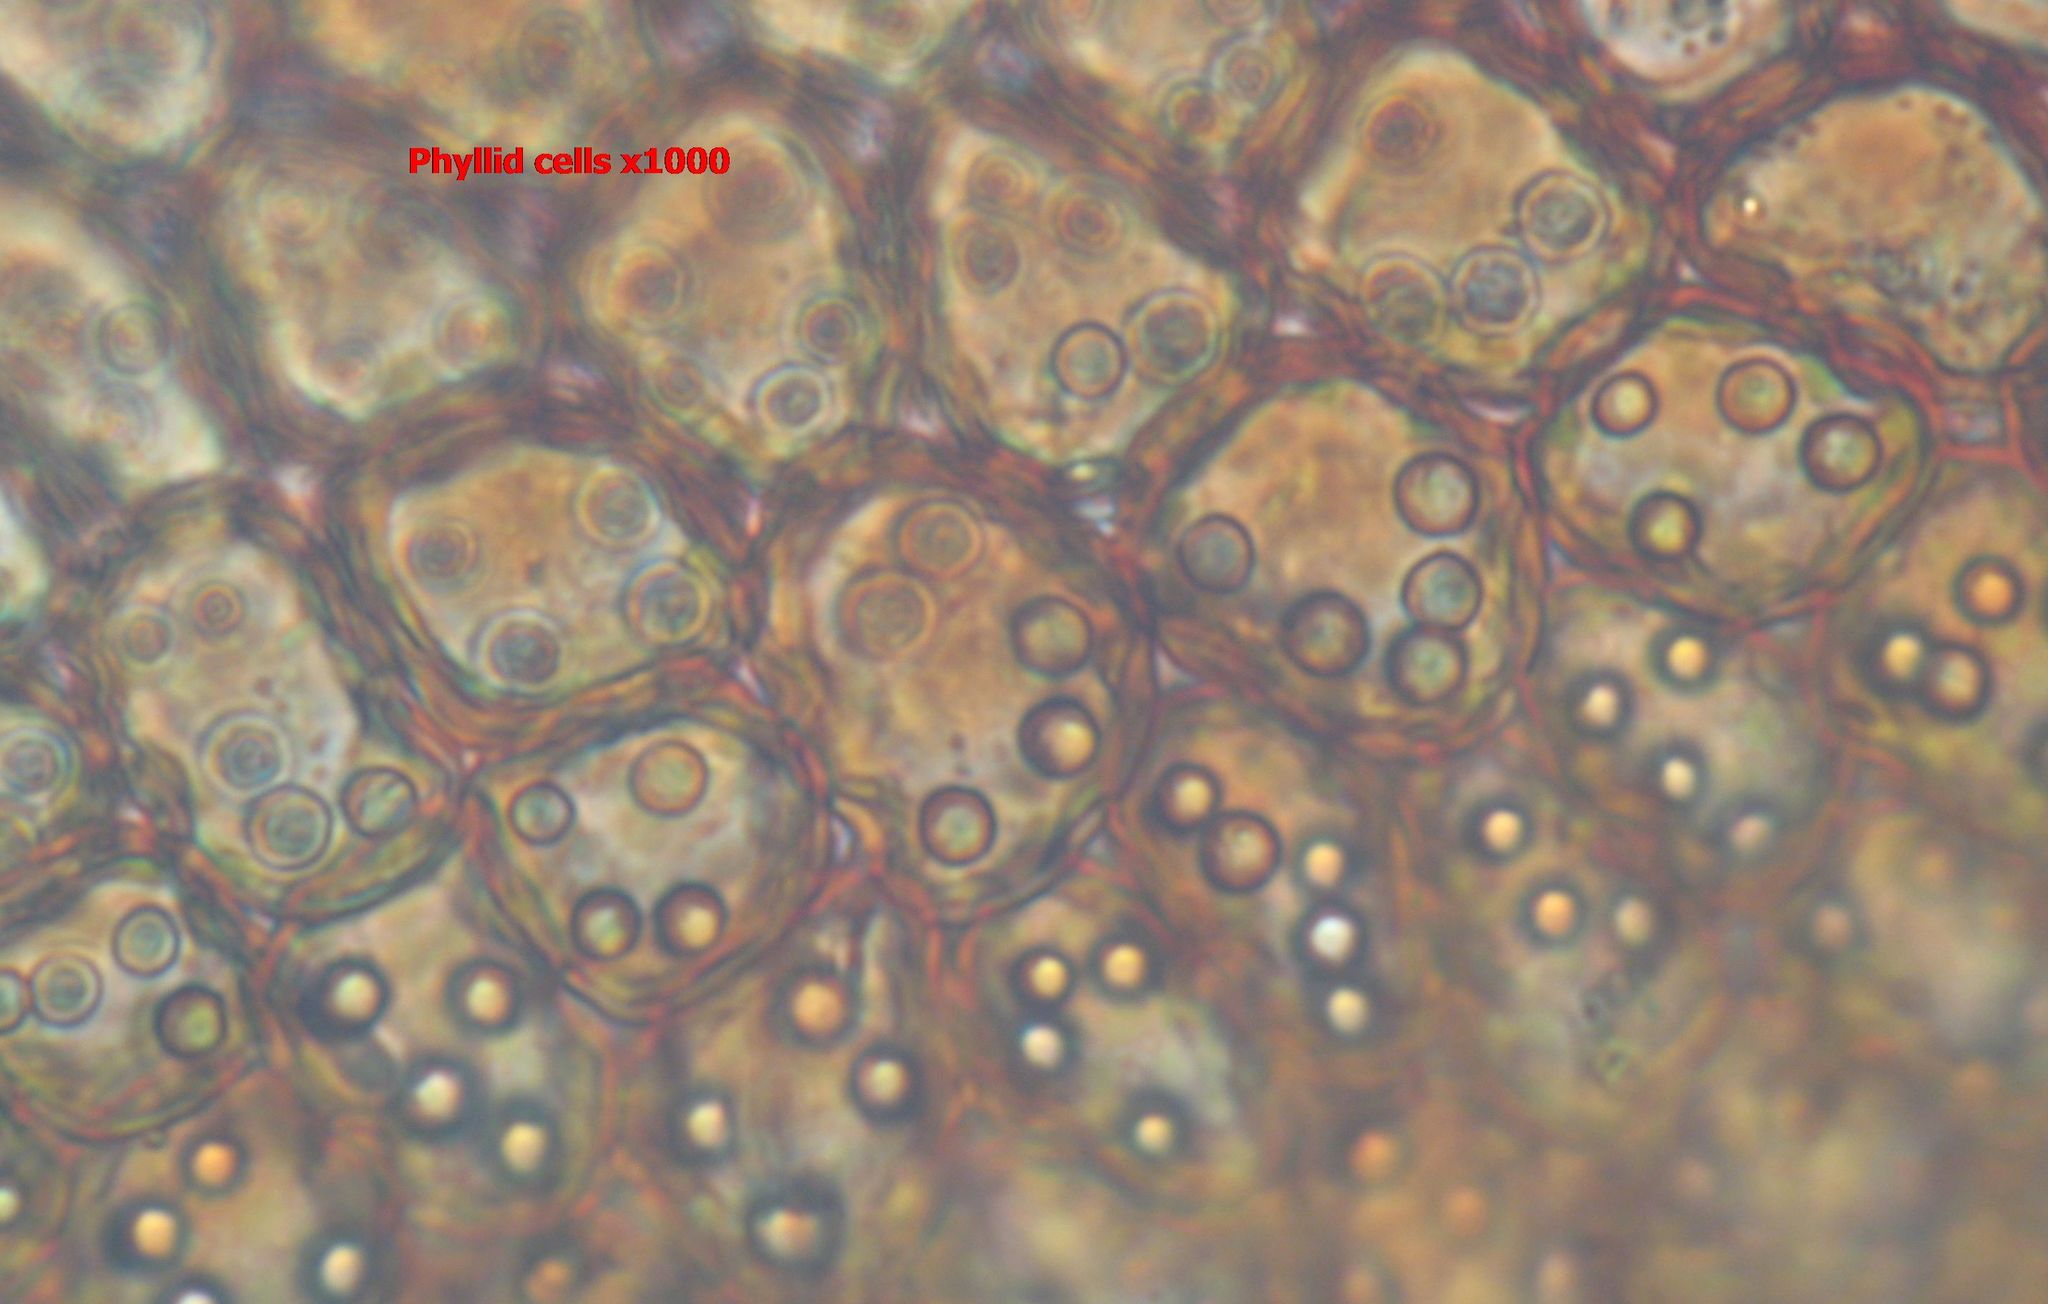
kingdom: Plantae
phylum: Marchantiophyta
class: Jungermanniopsida
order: Porellales
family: Frullaniaceae
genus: Frullania
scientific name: Frullania pentapleura
